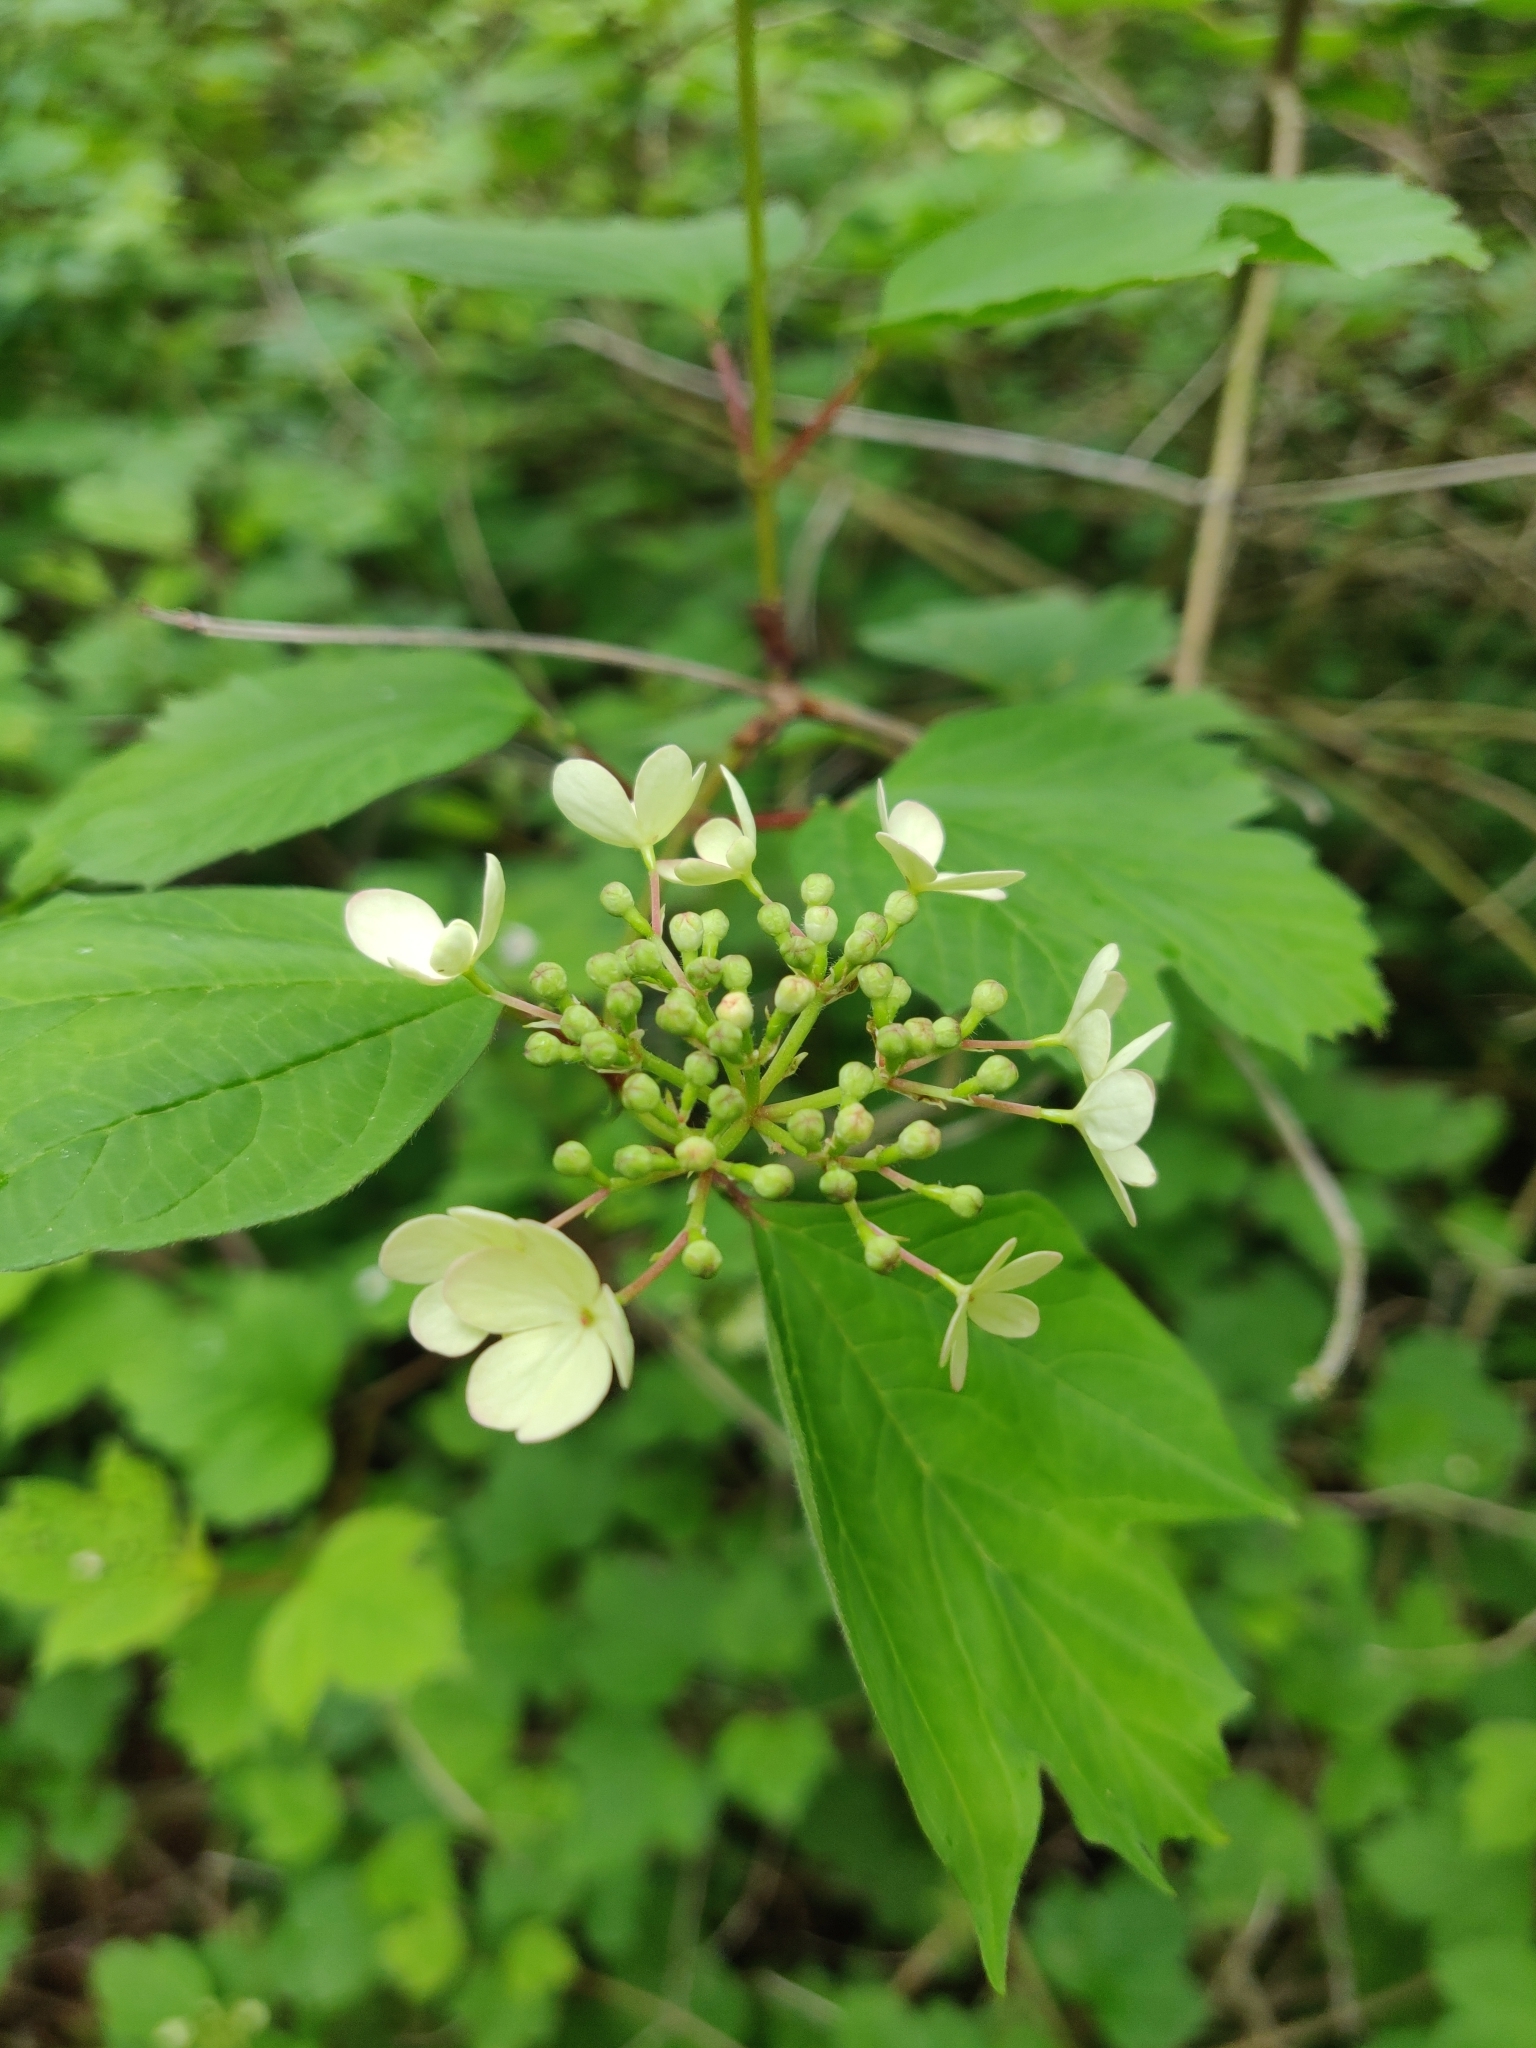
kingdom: Plantae
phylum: Tracheophyta
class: Magnoliopsida
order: Dipsacales
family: Viburnaceae
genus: Viburnum
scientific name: Viburnum opulus
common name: Guelder-rose
